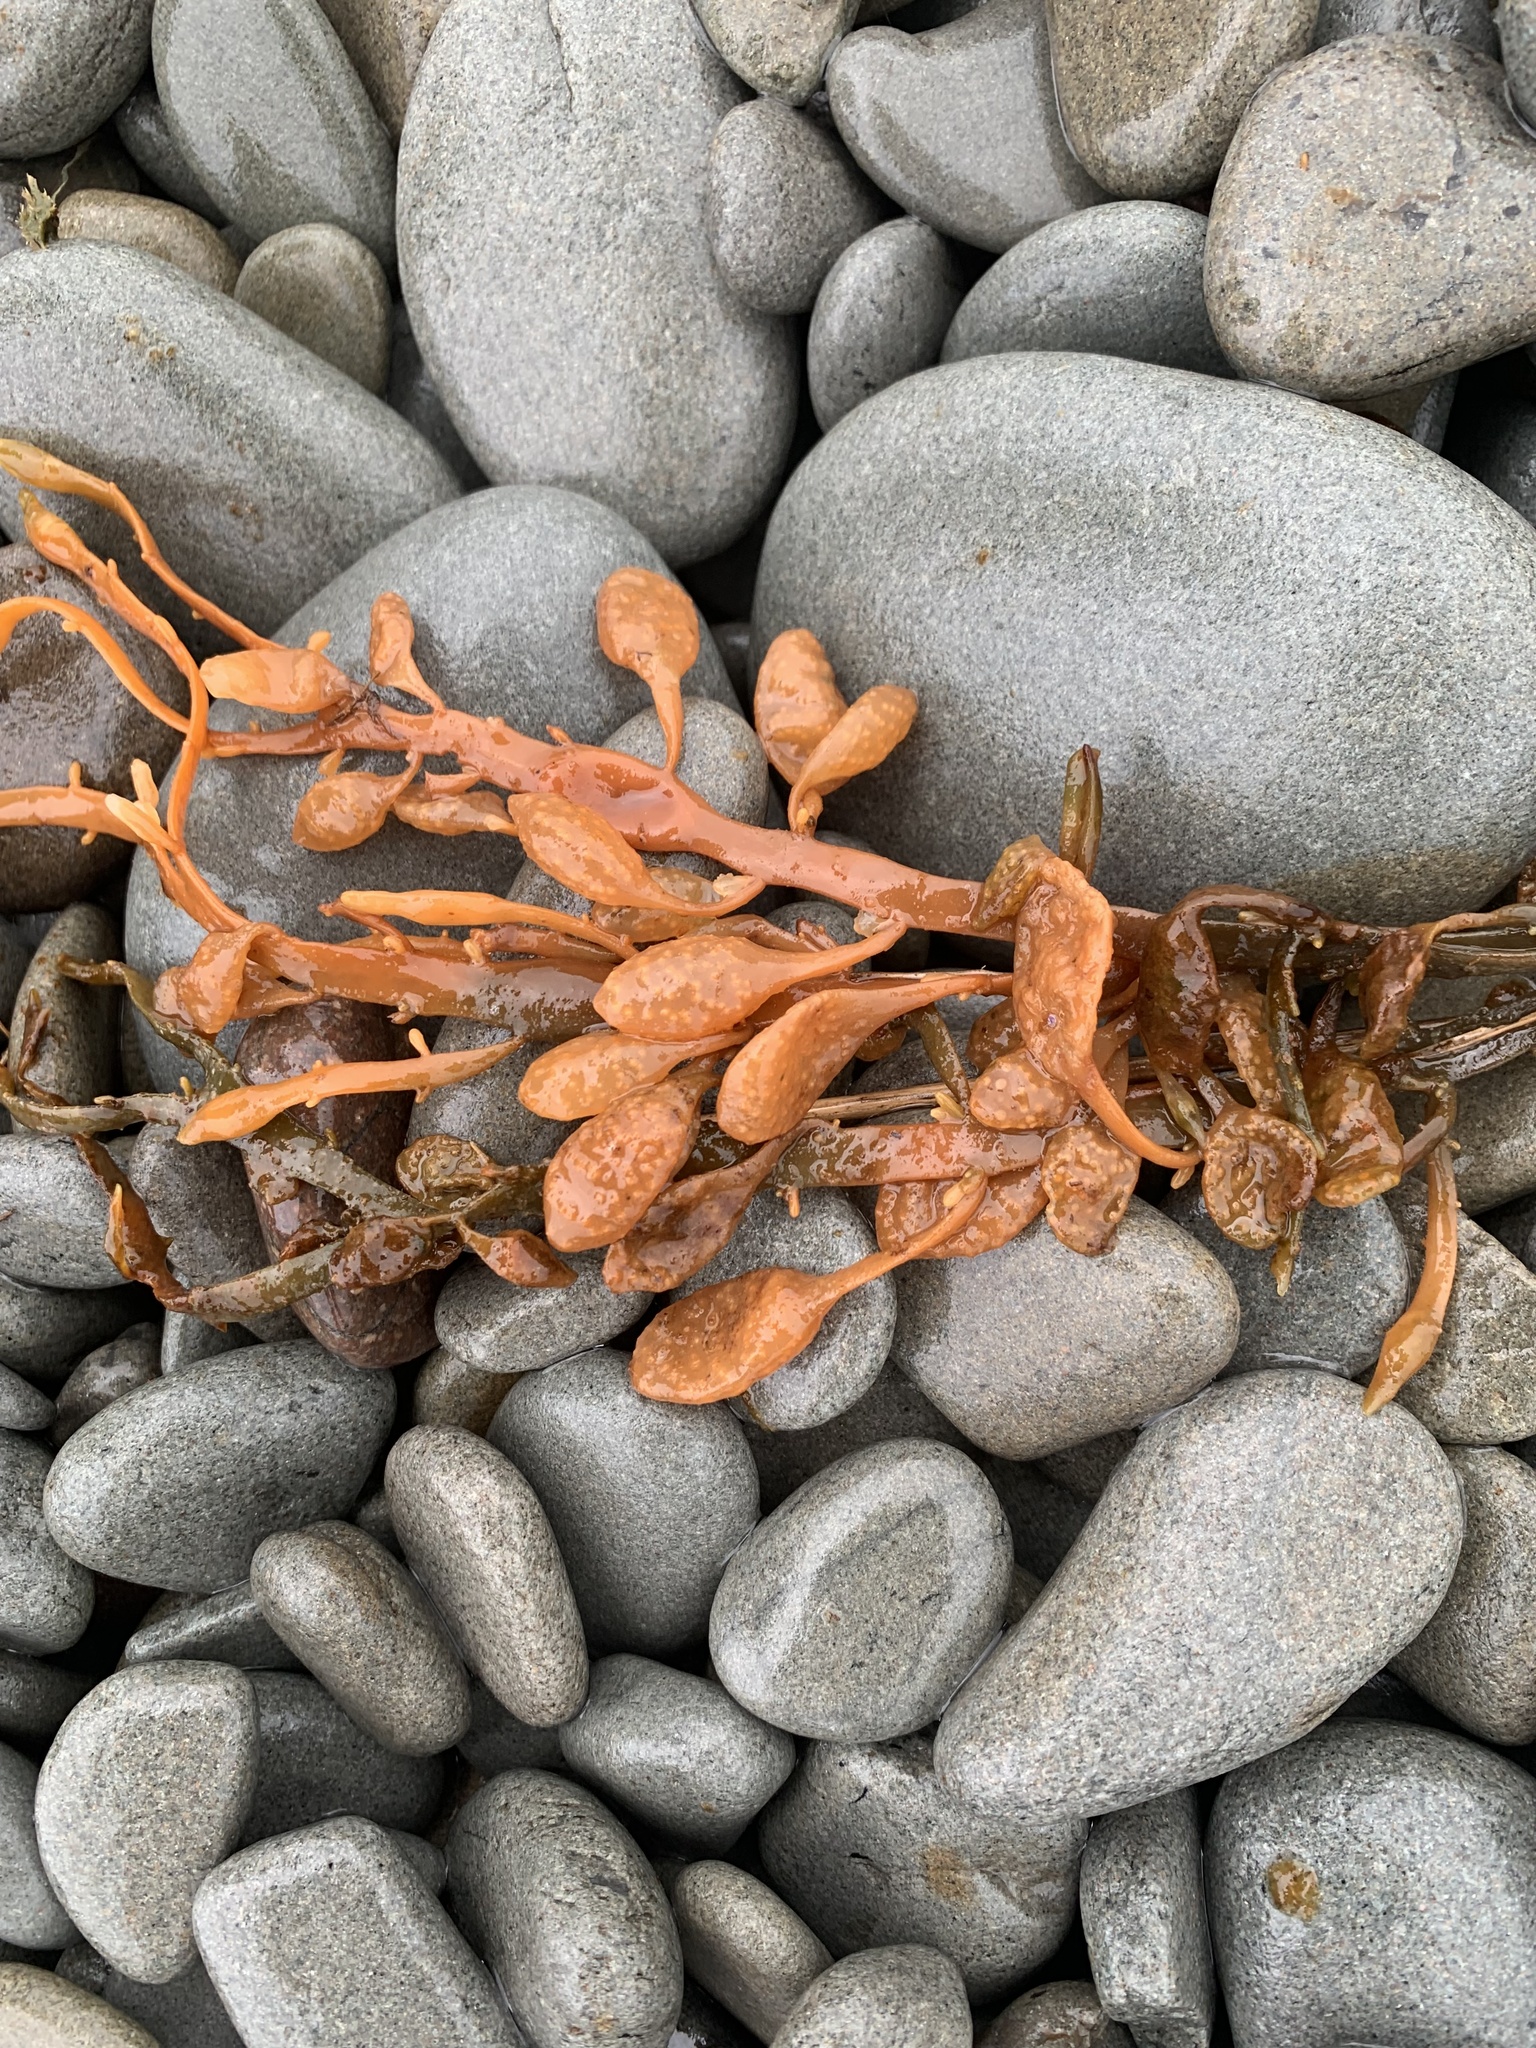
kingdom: Chromista
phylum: Ochrophyta
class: Phaeophyceae
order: Fucales
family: Fucaceae
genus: Ascophyllum
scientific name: Ascophyllum nodosum
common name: Knotted wrack
